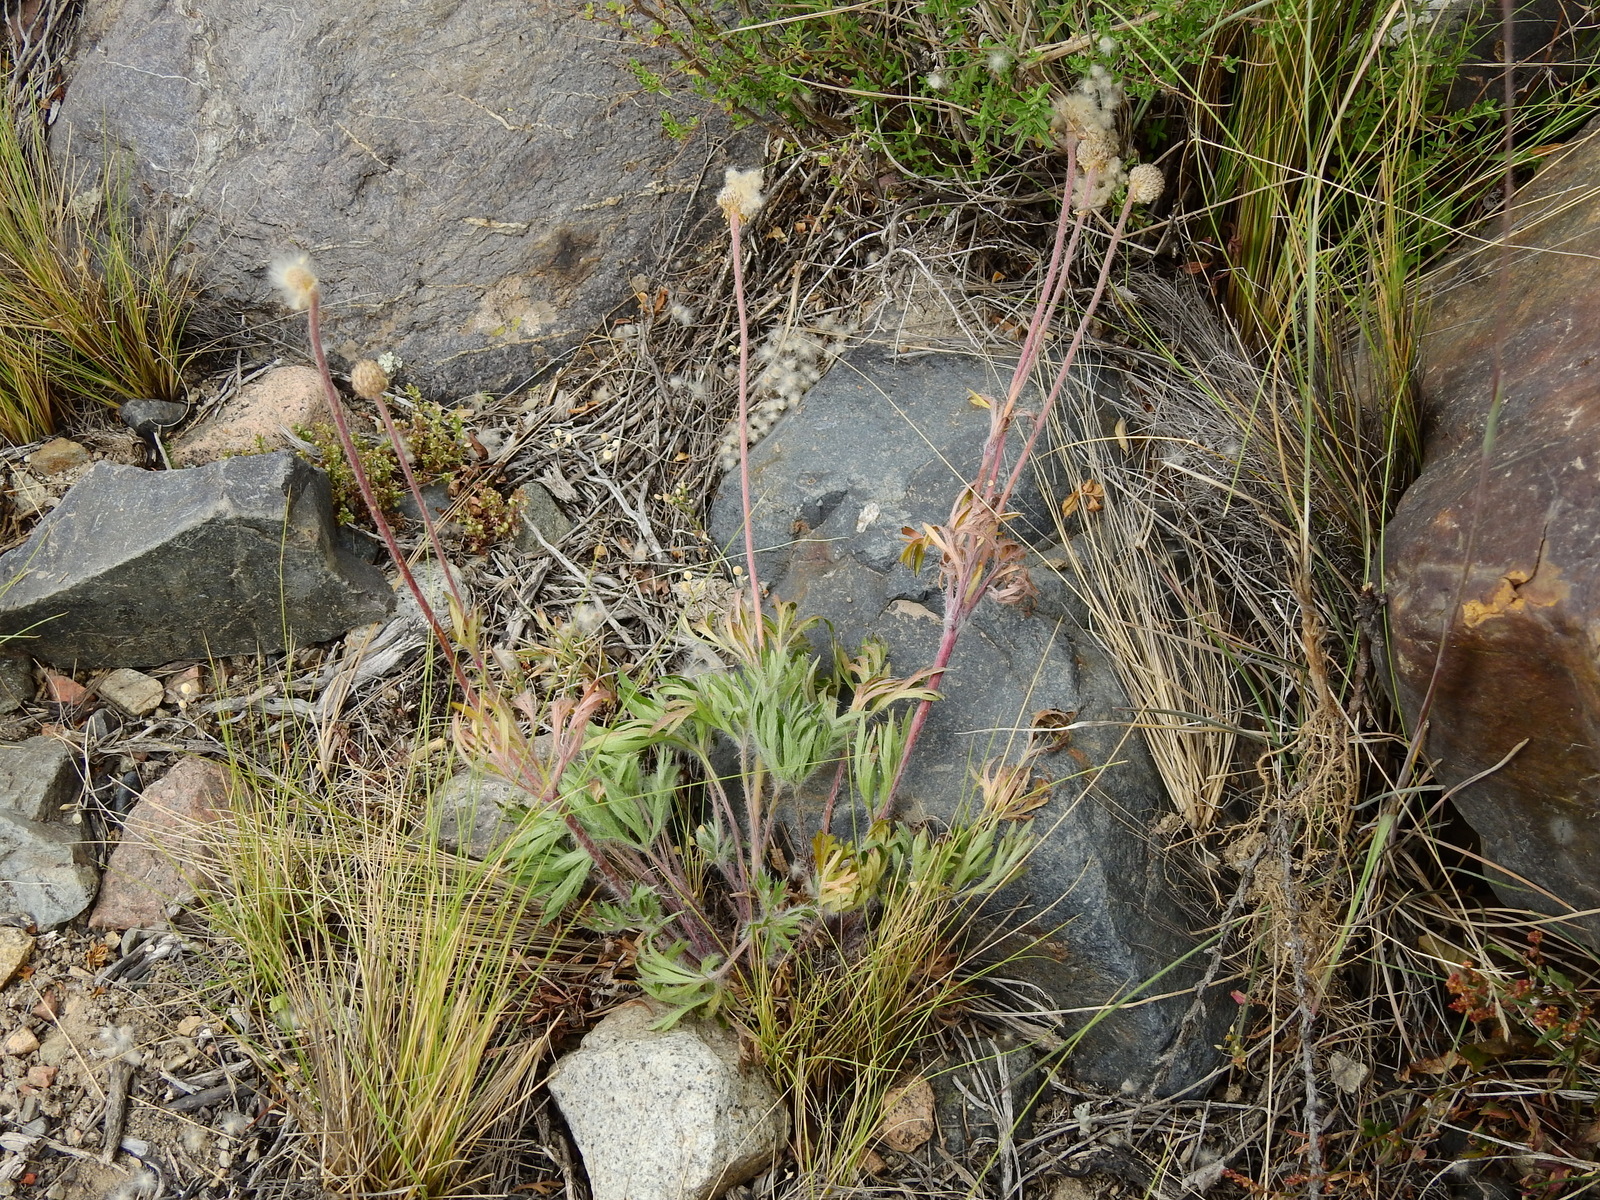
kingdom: Plantae
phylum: Tracheophyta
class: Magnoliopsida
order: Ranunculales
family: Ranunculaceae
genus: Anemone
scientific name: Anemone multifida
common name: Bird's-foot anemone
